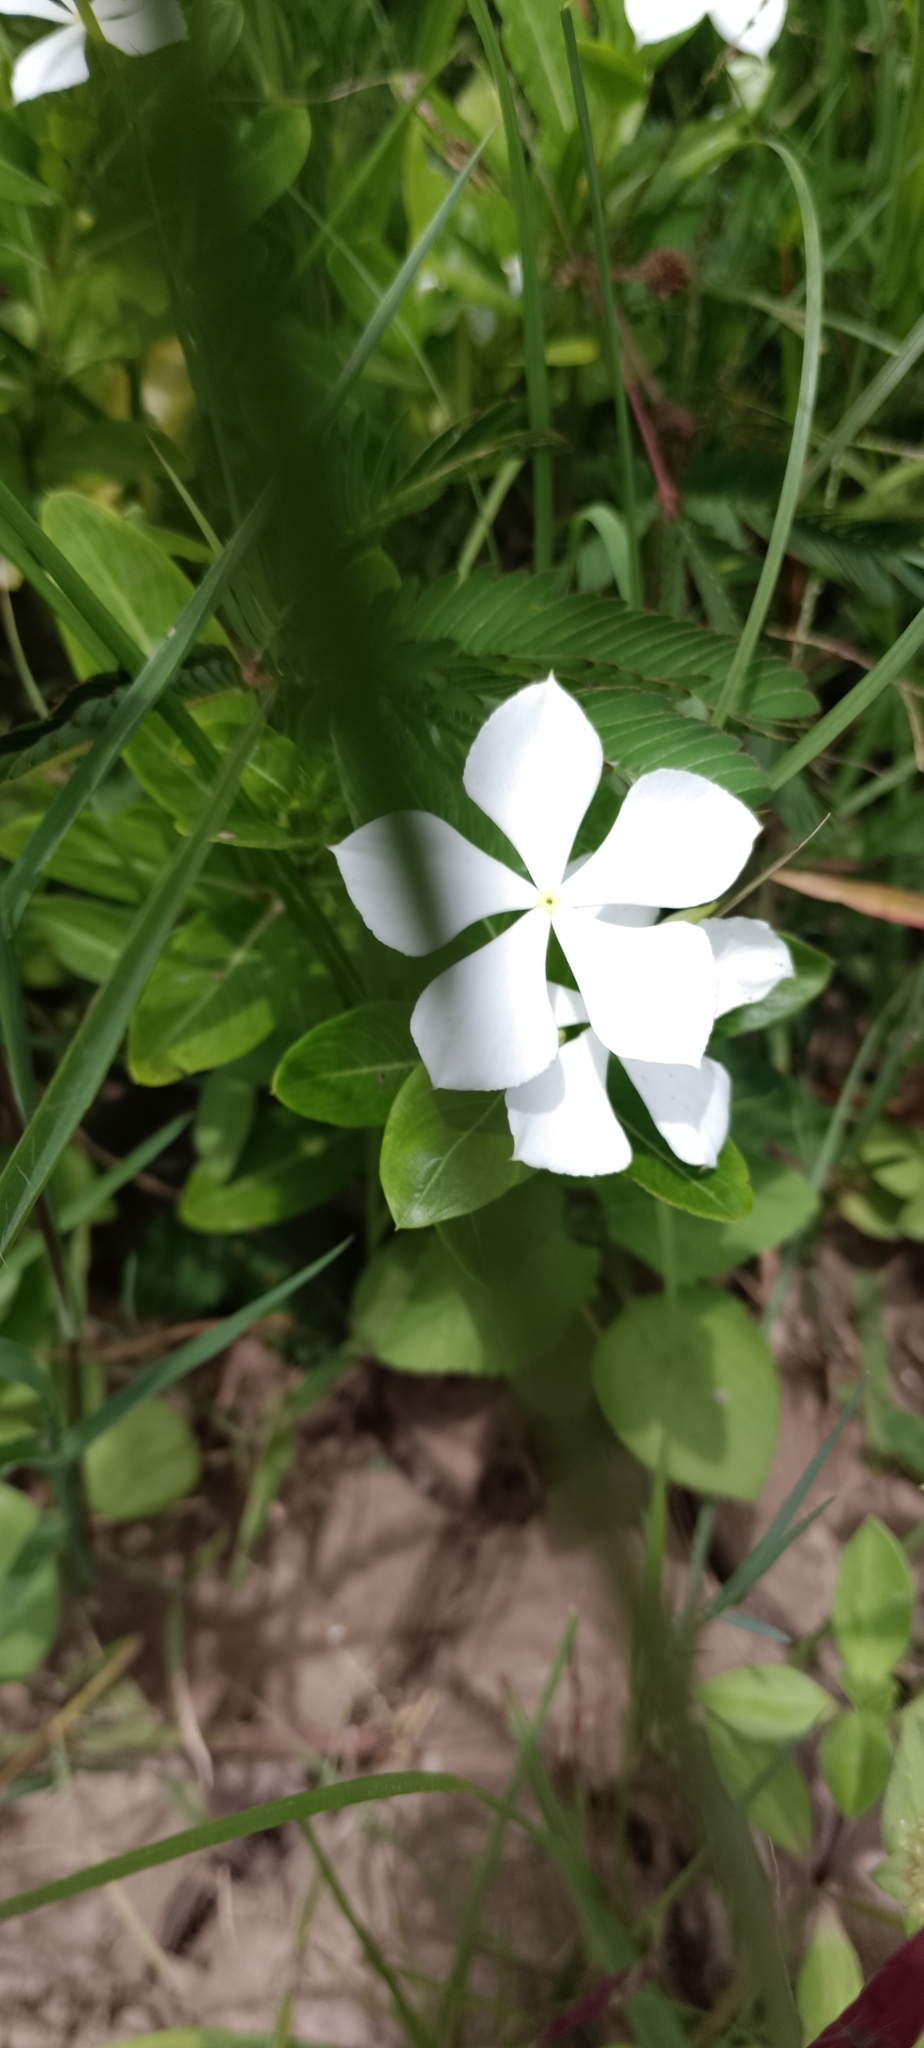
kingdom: Plantae
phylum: Tracheophyta
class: Magnoliopsida
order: Gentianales
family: Apocynaceae
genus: Catharanthus
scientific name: Catharanthus roseus
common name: Madagascar periwinkle
